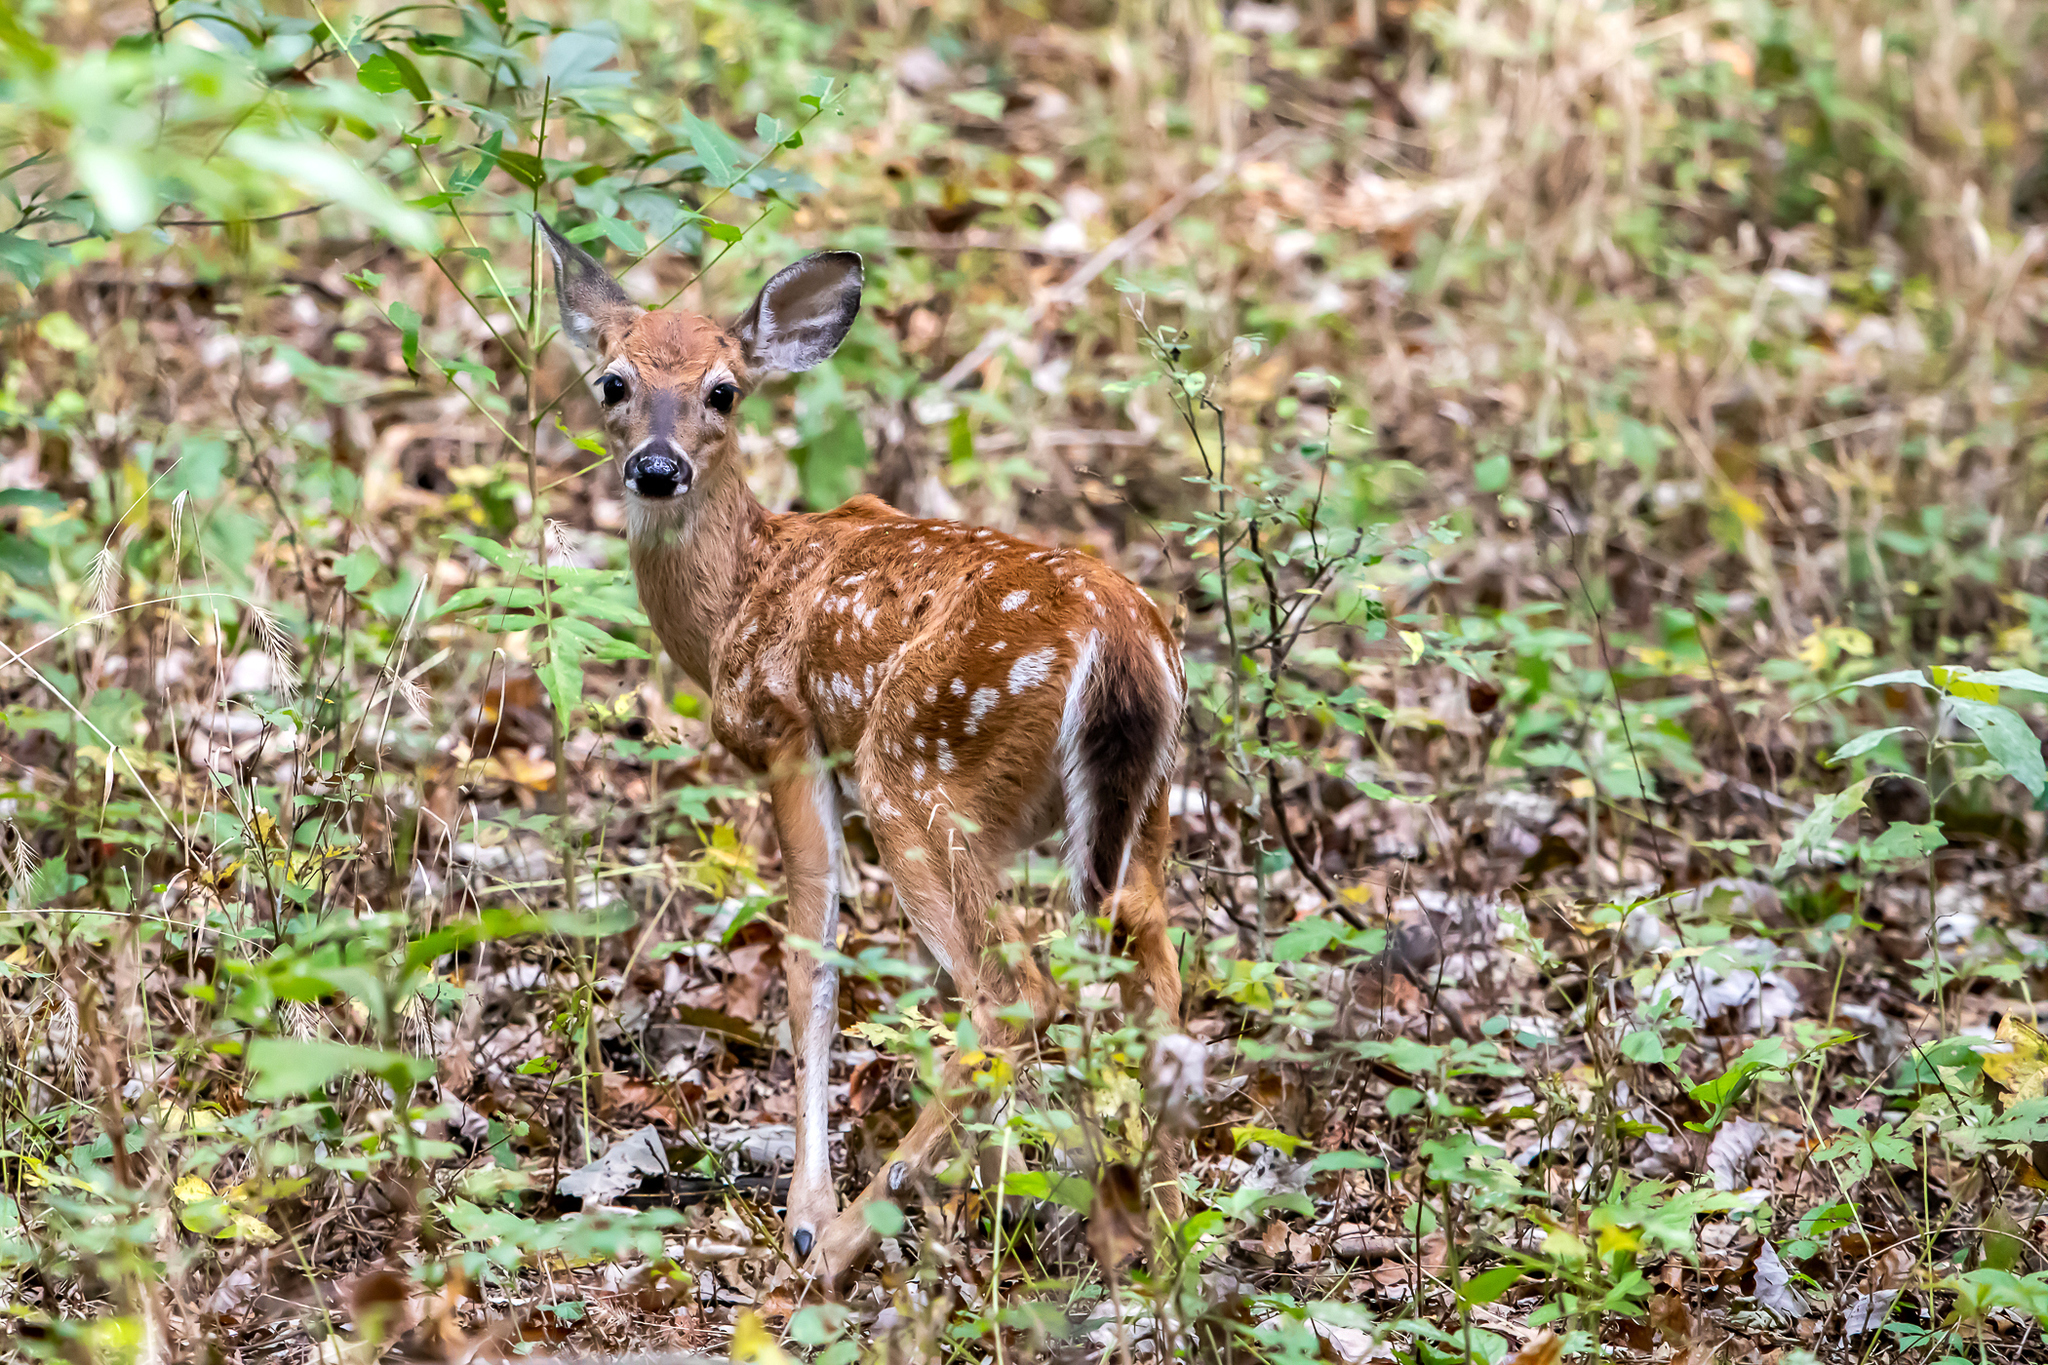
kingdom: Animalia
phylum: Chordata
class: Mammalia
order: Artiodactyla
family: Cervidae
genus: Odocoileus
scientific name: Odocoileus virginianus
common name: White-tailed deer
